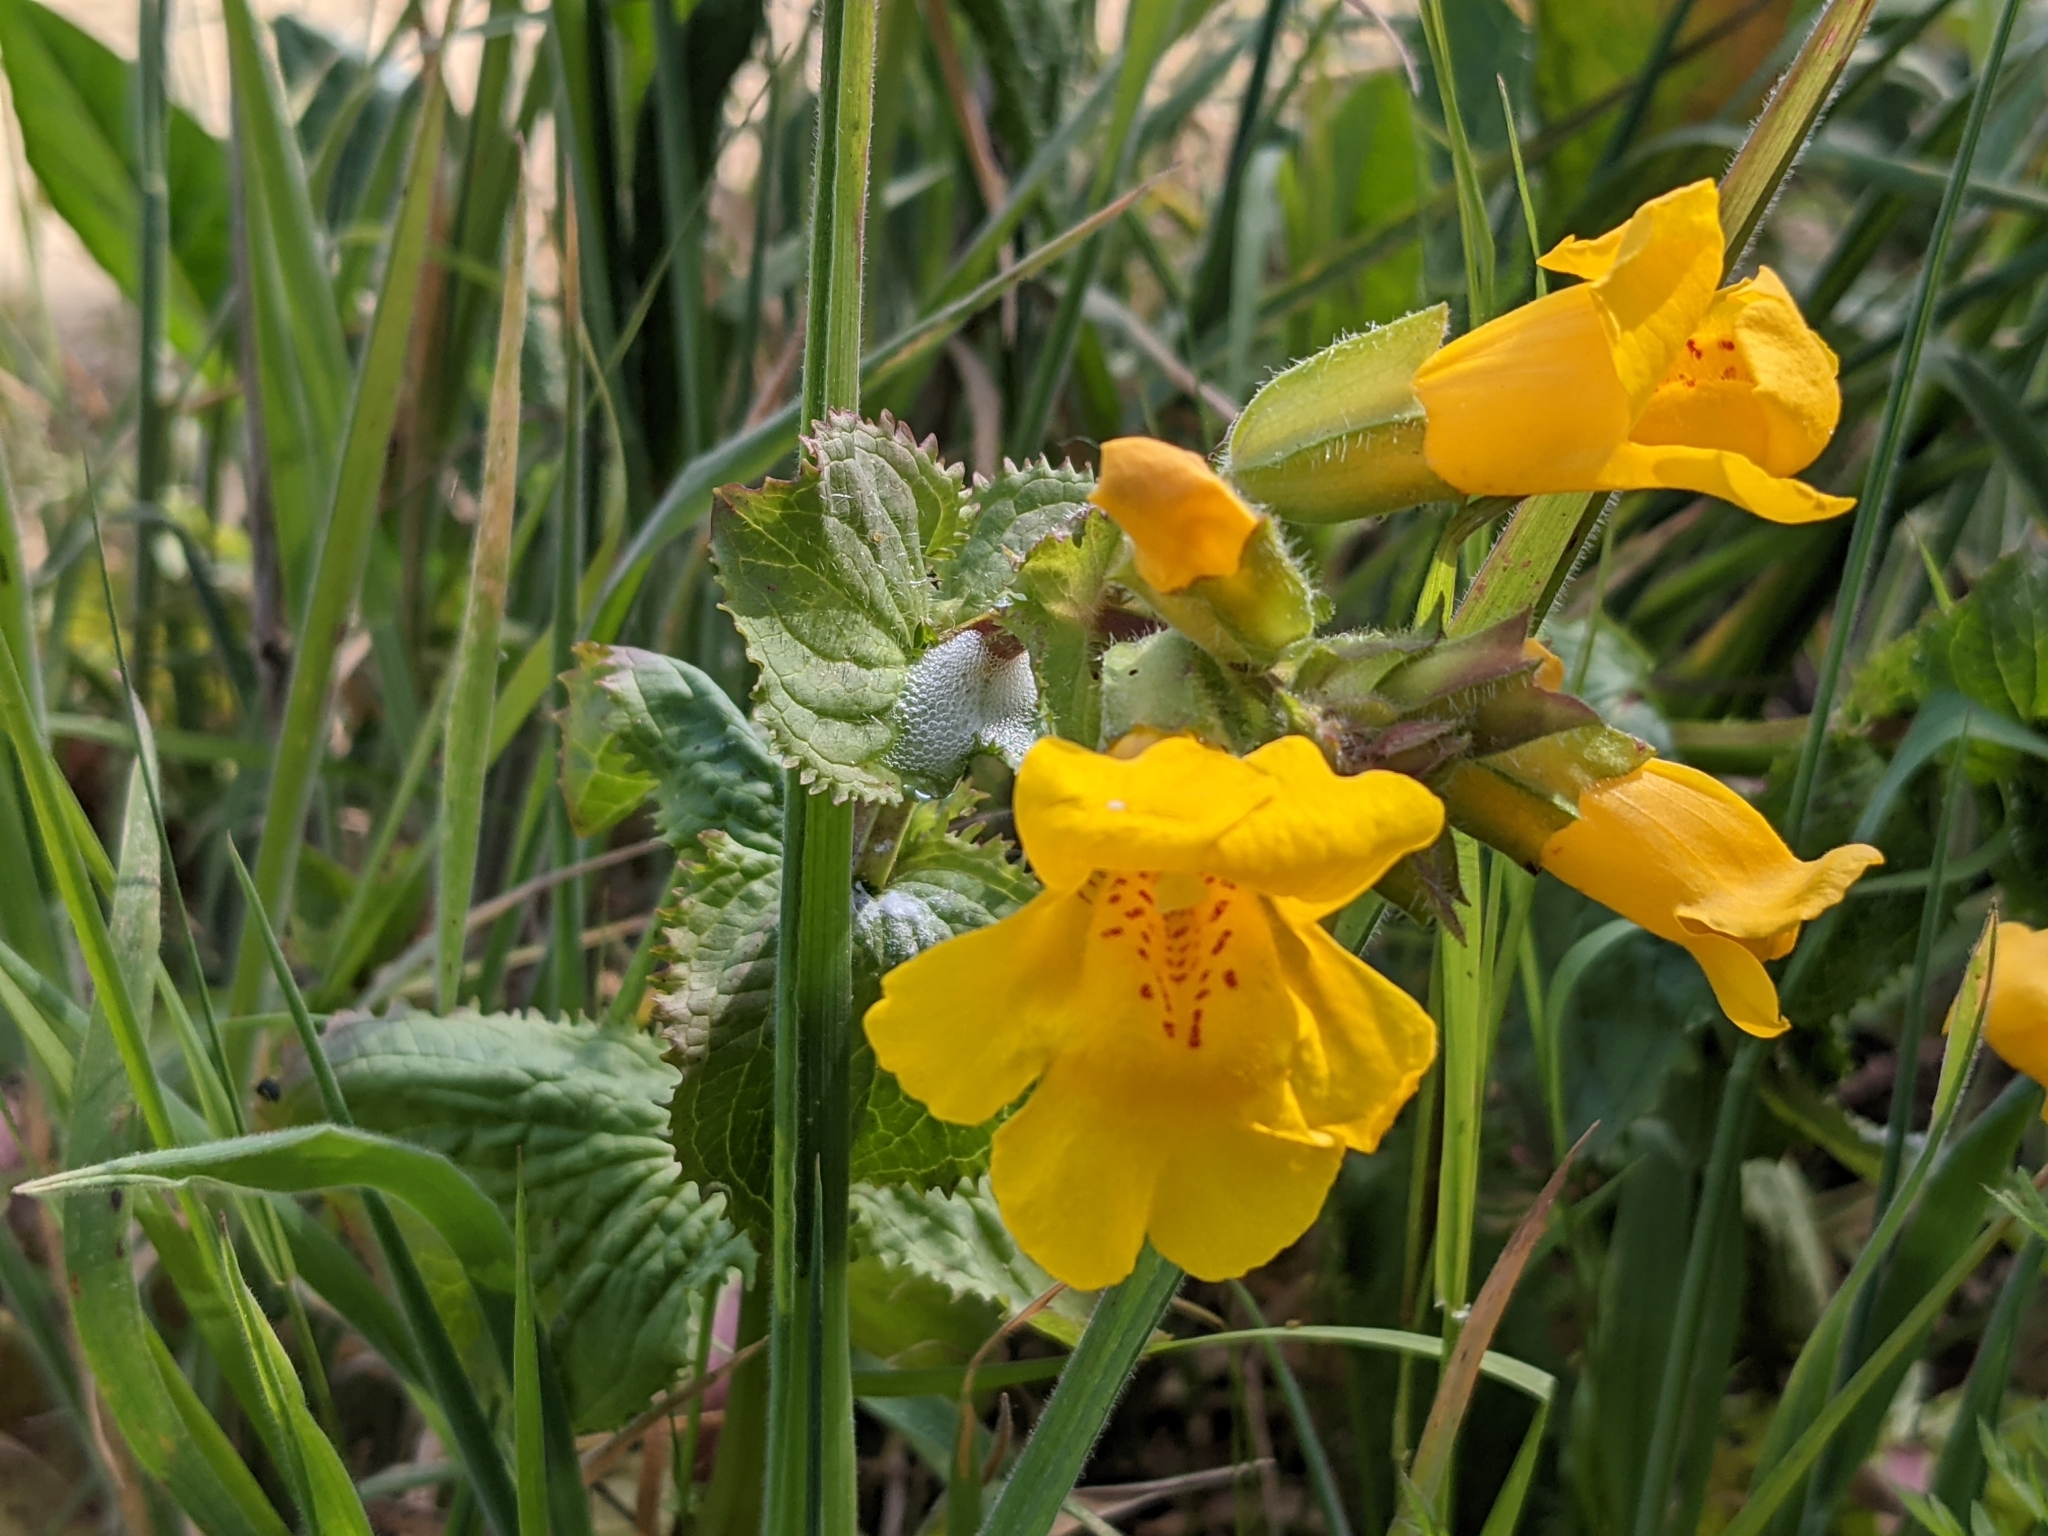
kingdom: Plantae
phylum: Tracheophyta
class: Magnoliopsida
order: Lamiales
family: Phrymaceae
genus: Erythranthe
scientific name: Erythranthe guttata
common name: Monkeyflower
